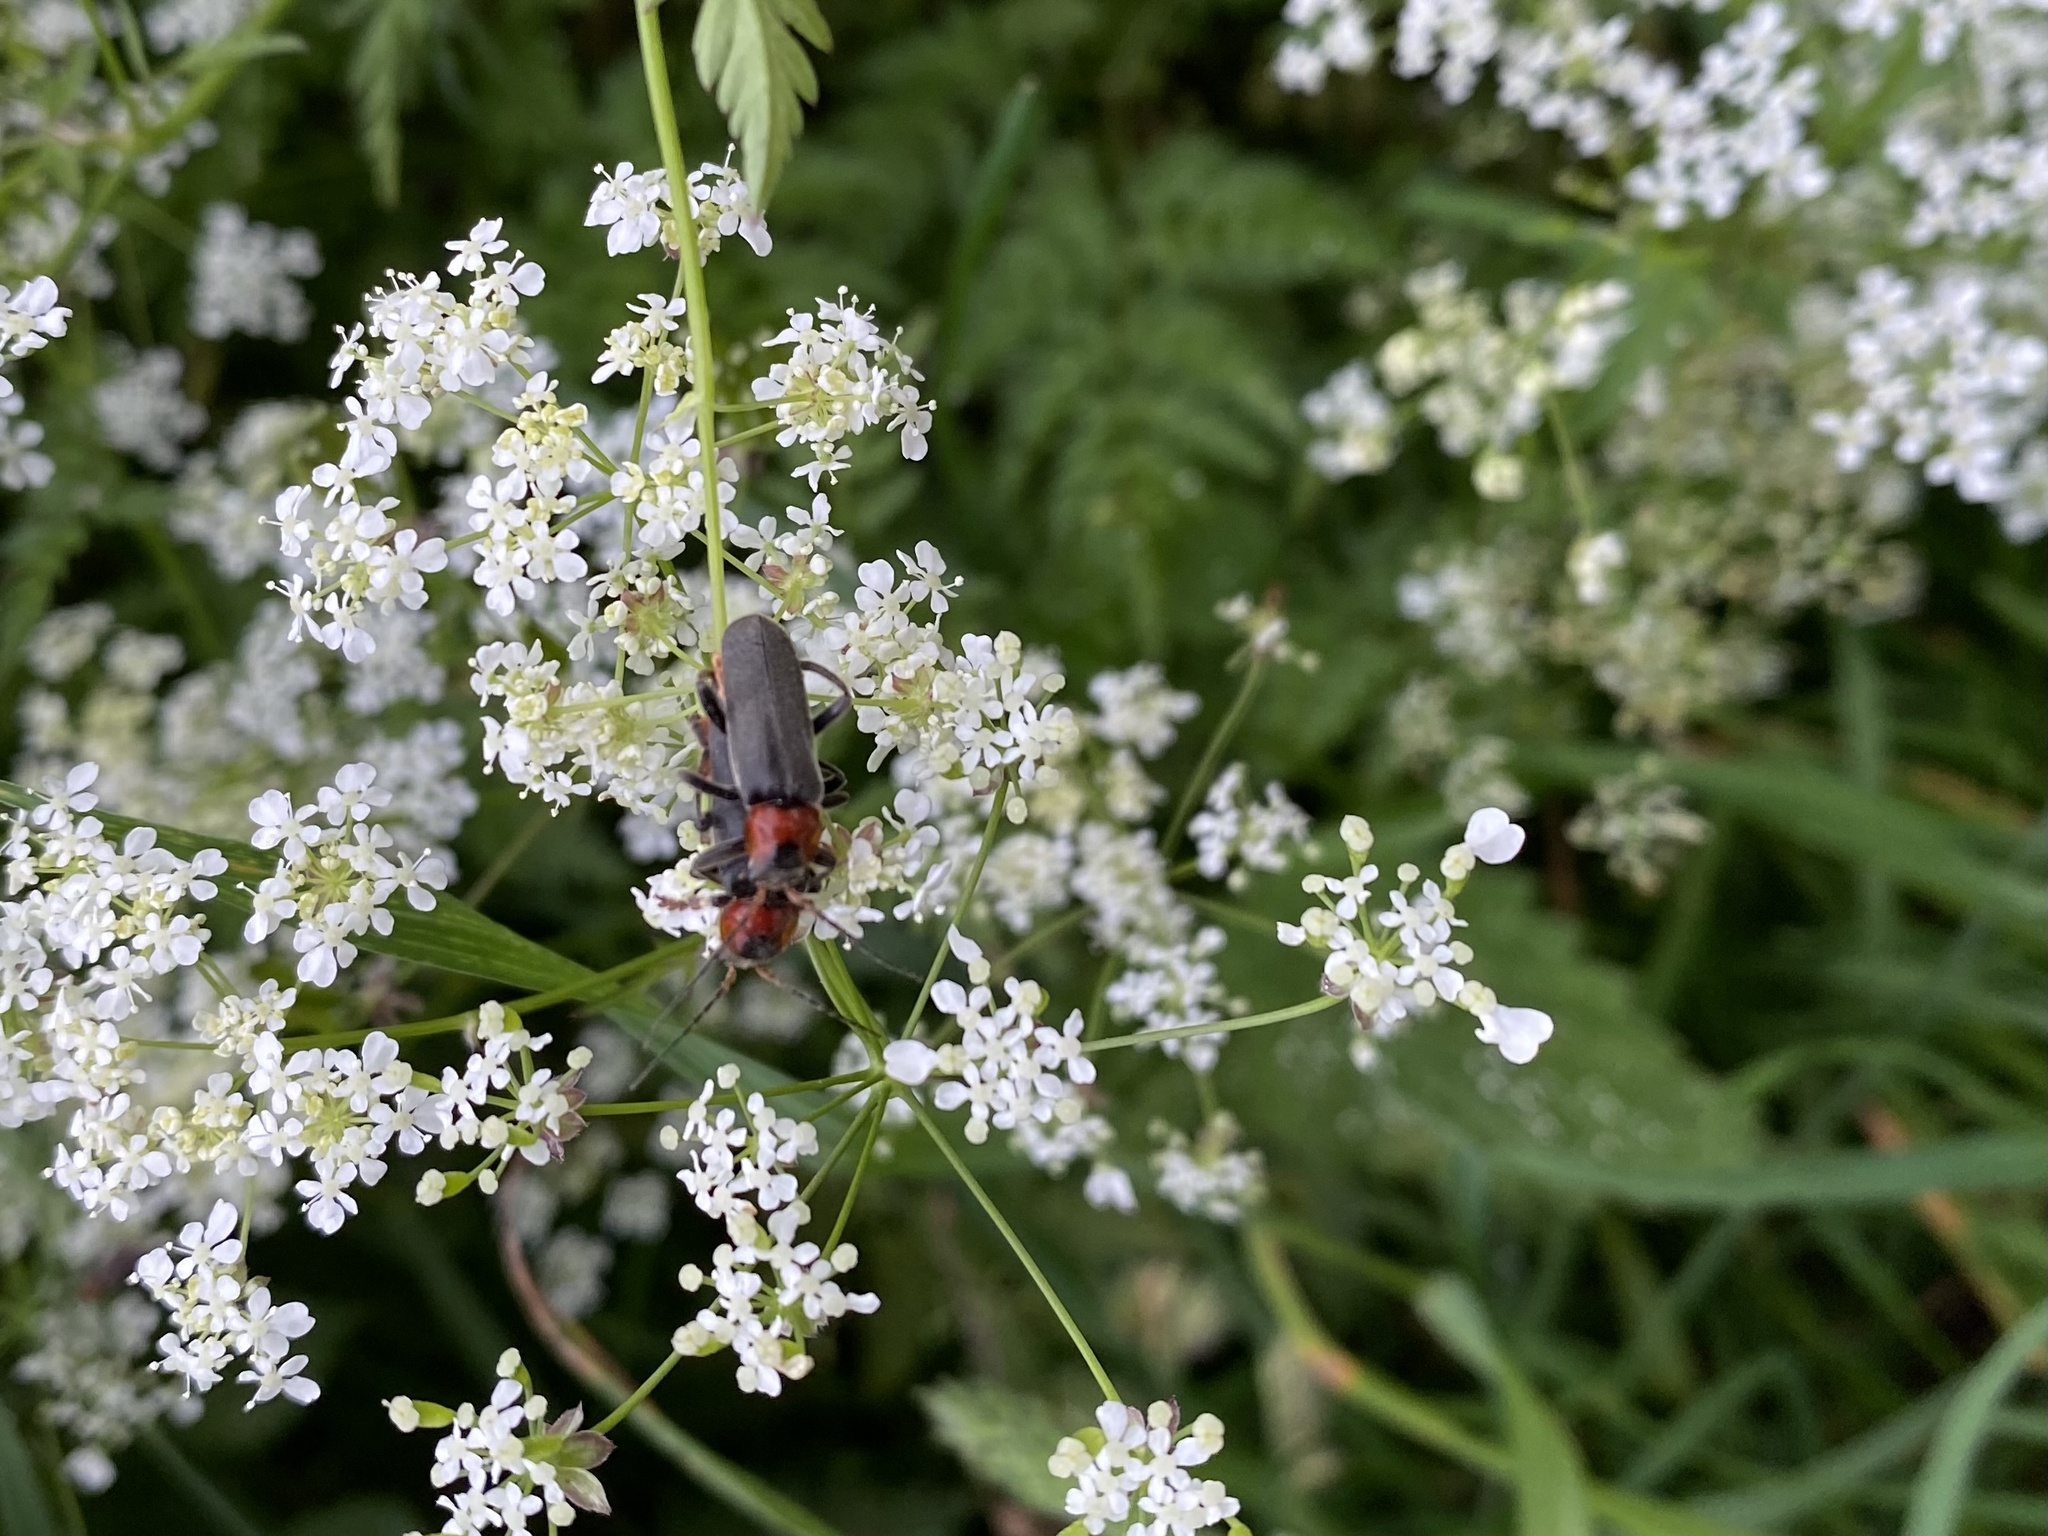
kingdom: Animalia
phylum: Arthropoda
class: Insecta
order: Coleoptera
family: Cantharidae
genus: Cantharis
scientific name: Cantharis fusca
